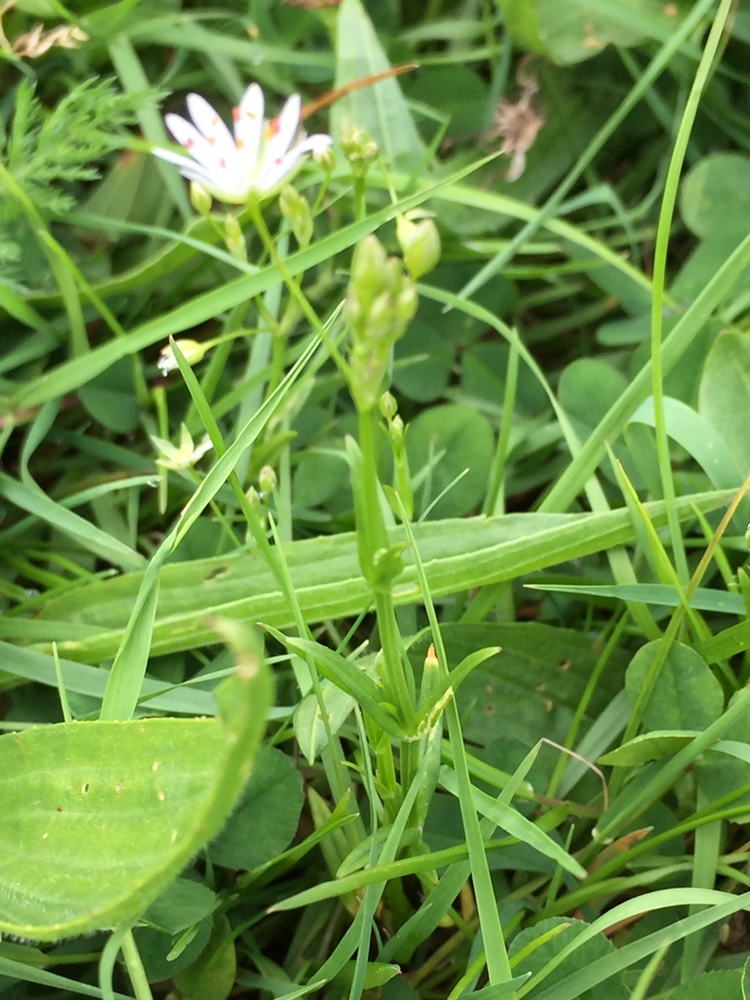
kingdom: Plantae
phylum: Tracheophyta
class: Magnoliopsida
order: Caryophyllales
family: Caryophyllaceae
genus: Stellaria
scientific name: Stellaria graminea
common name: Grass-like starwort
